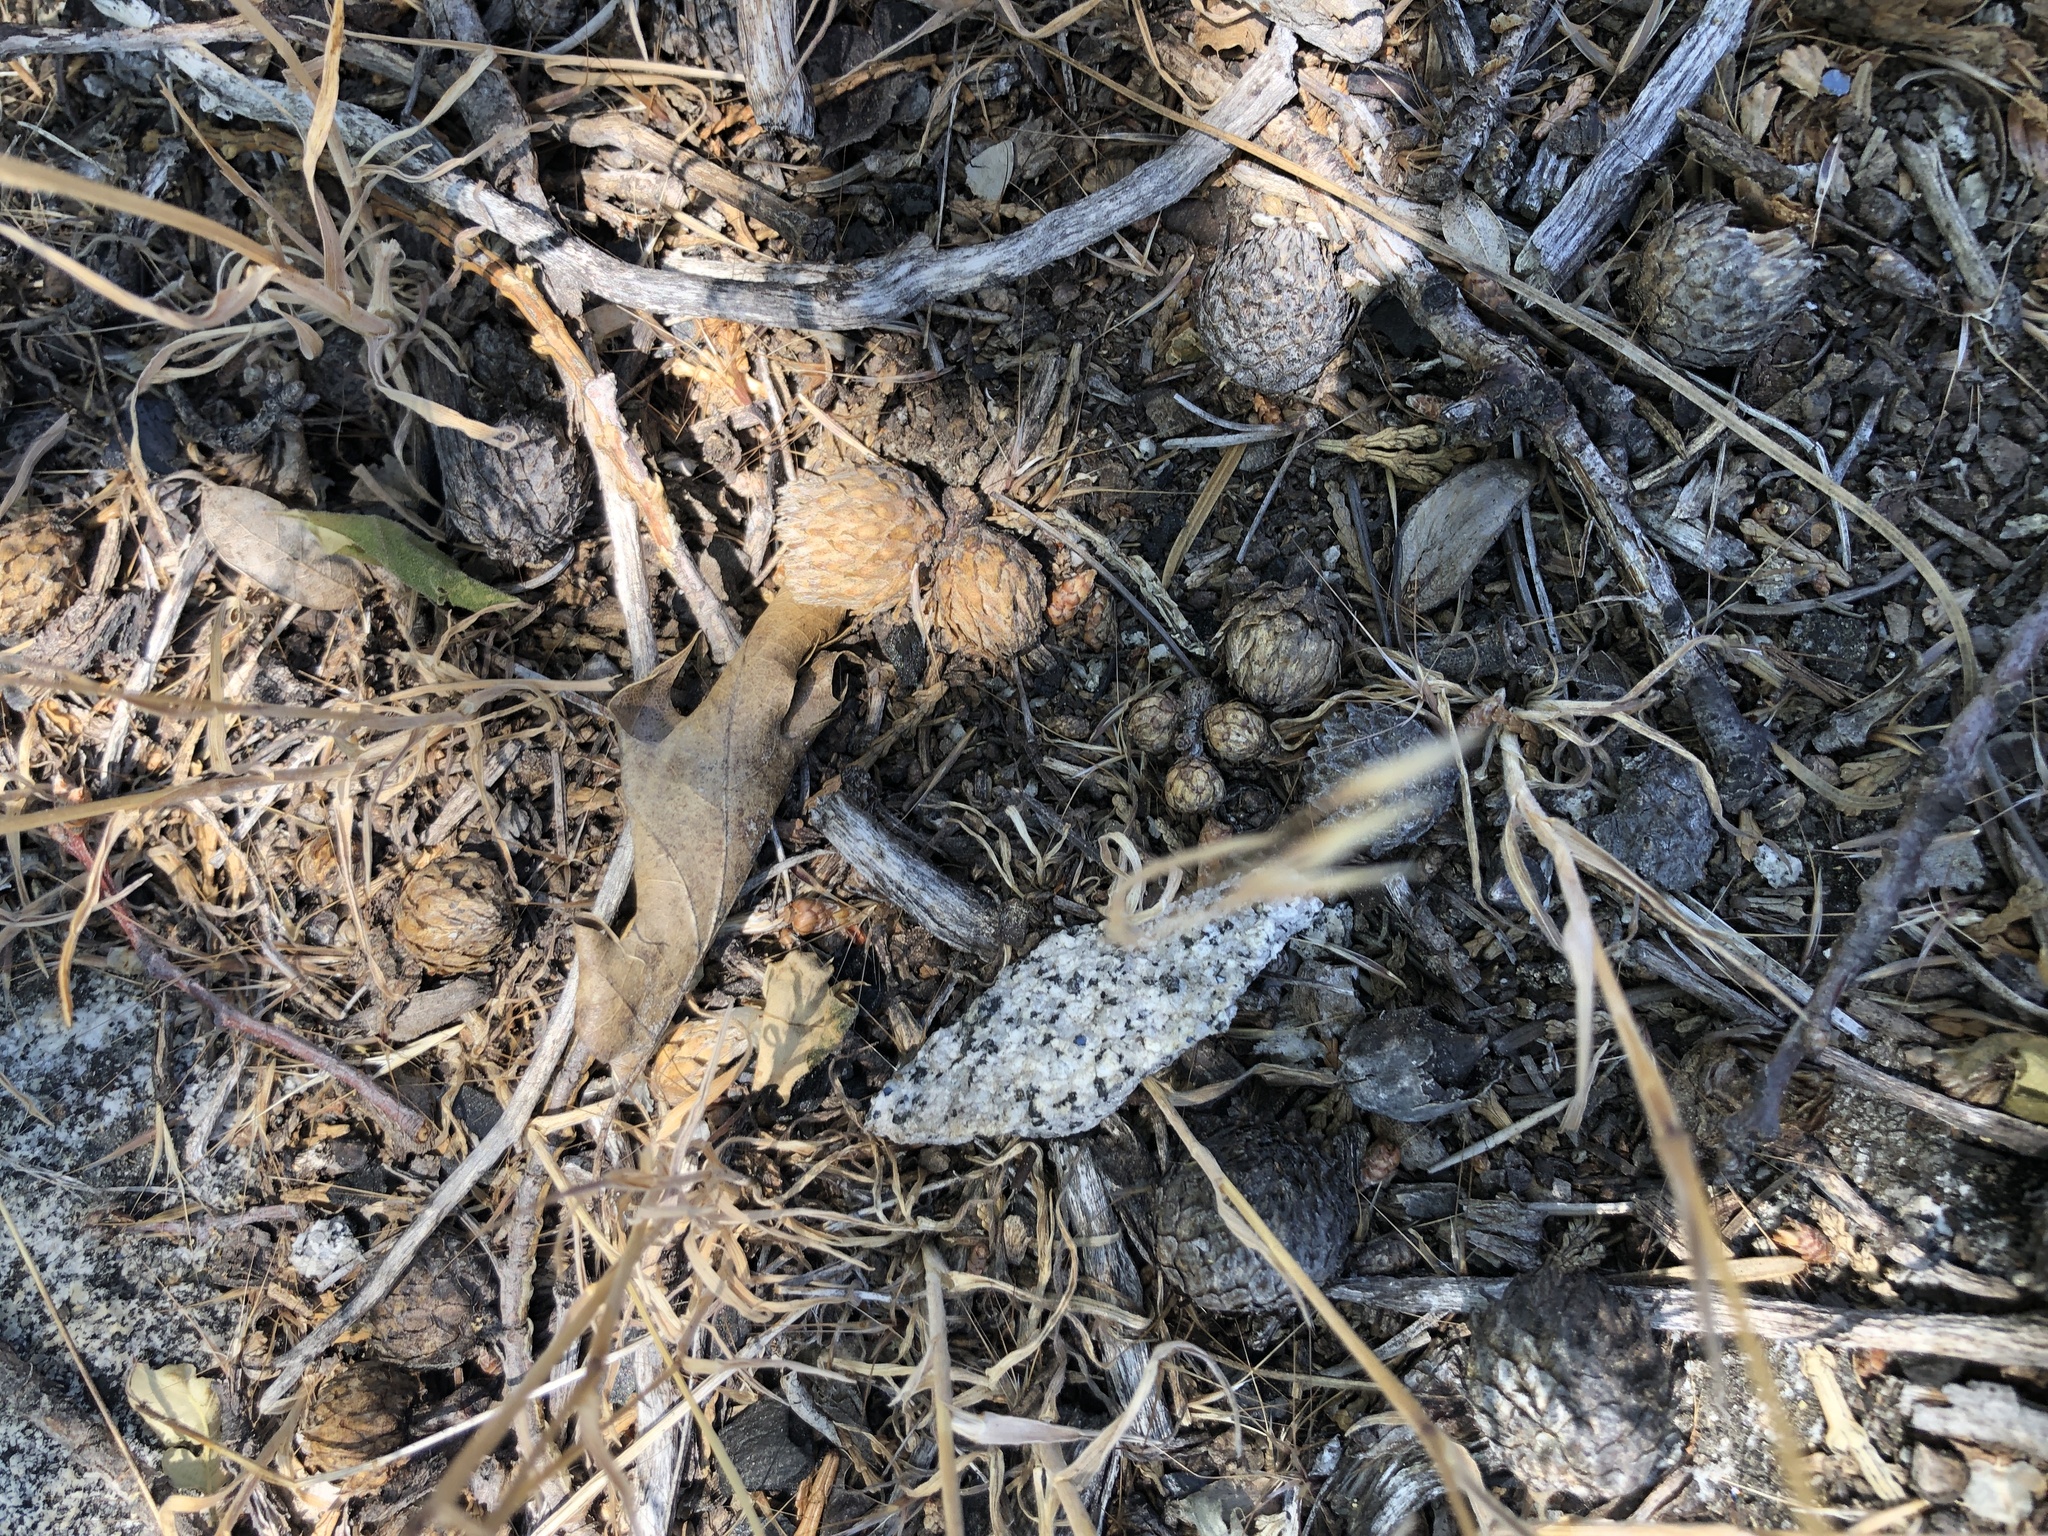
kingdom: Plantae
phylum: Tracheophyta
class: Magnoliopsida
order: Fagales
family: Fagaceae
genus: Quercus
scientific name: Quercus kelloggii
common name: California black oak
